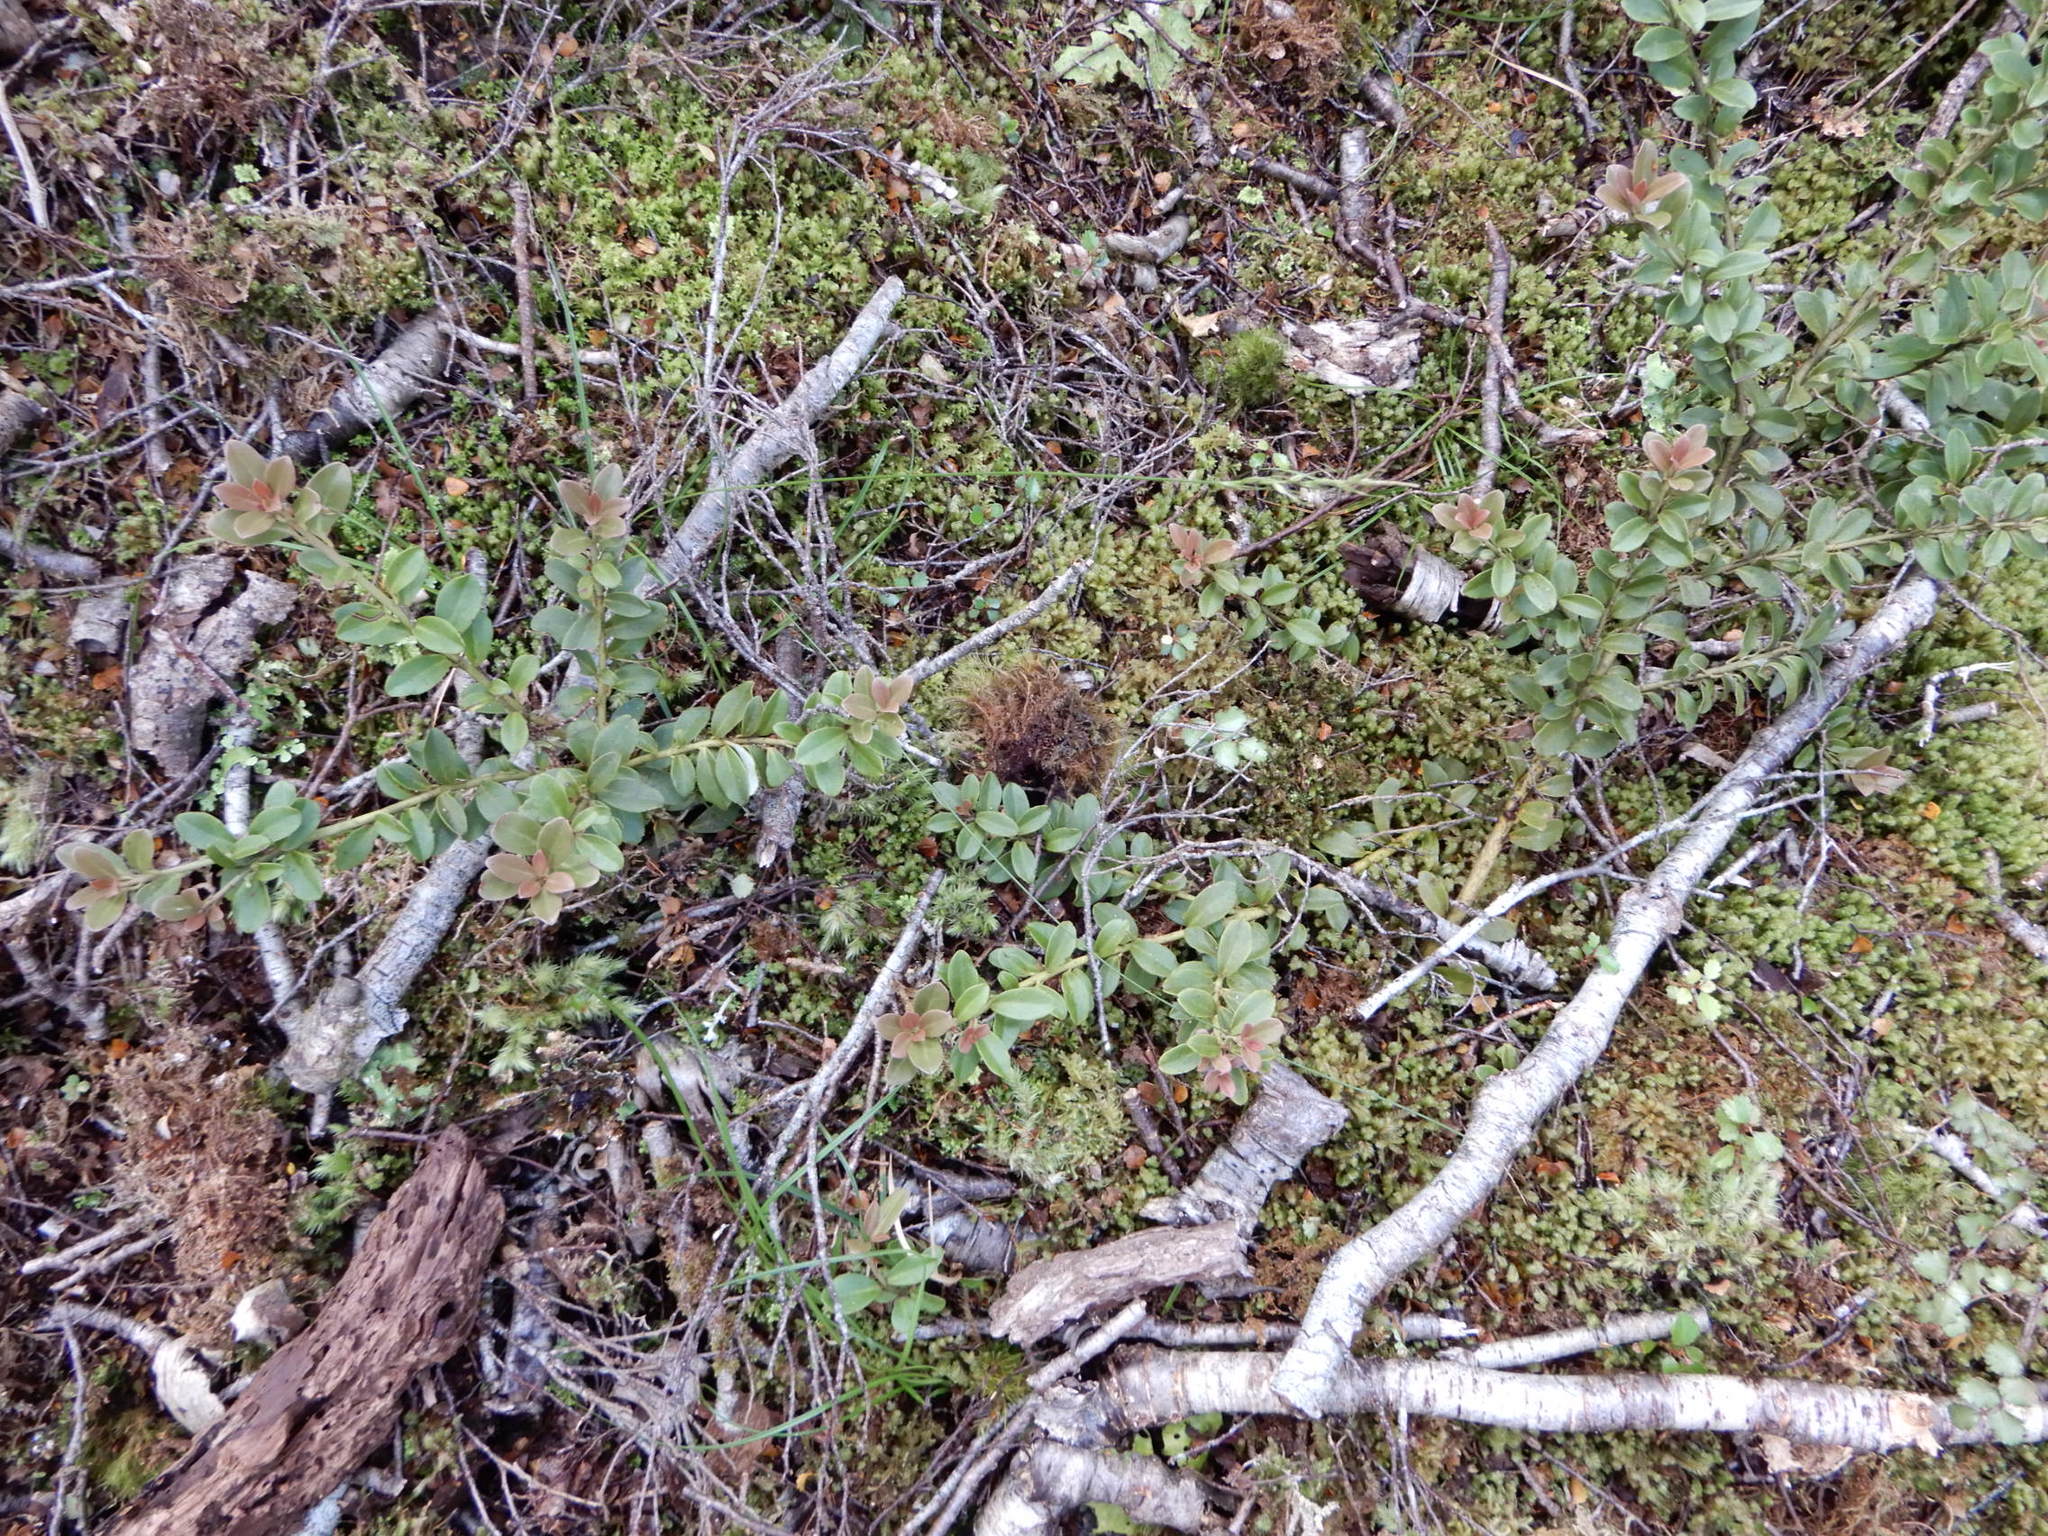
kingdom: Plantae
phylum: Tracheophyta
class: Magnoliopsida
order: Canellales
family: Winteraceae
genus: Pseudowintera
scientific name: Pseudowintera traversii
